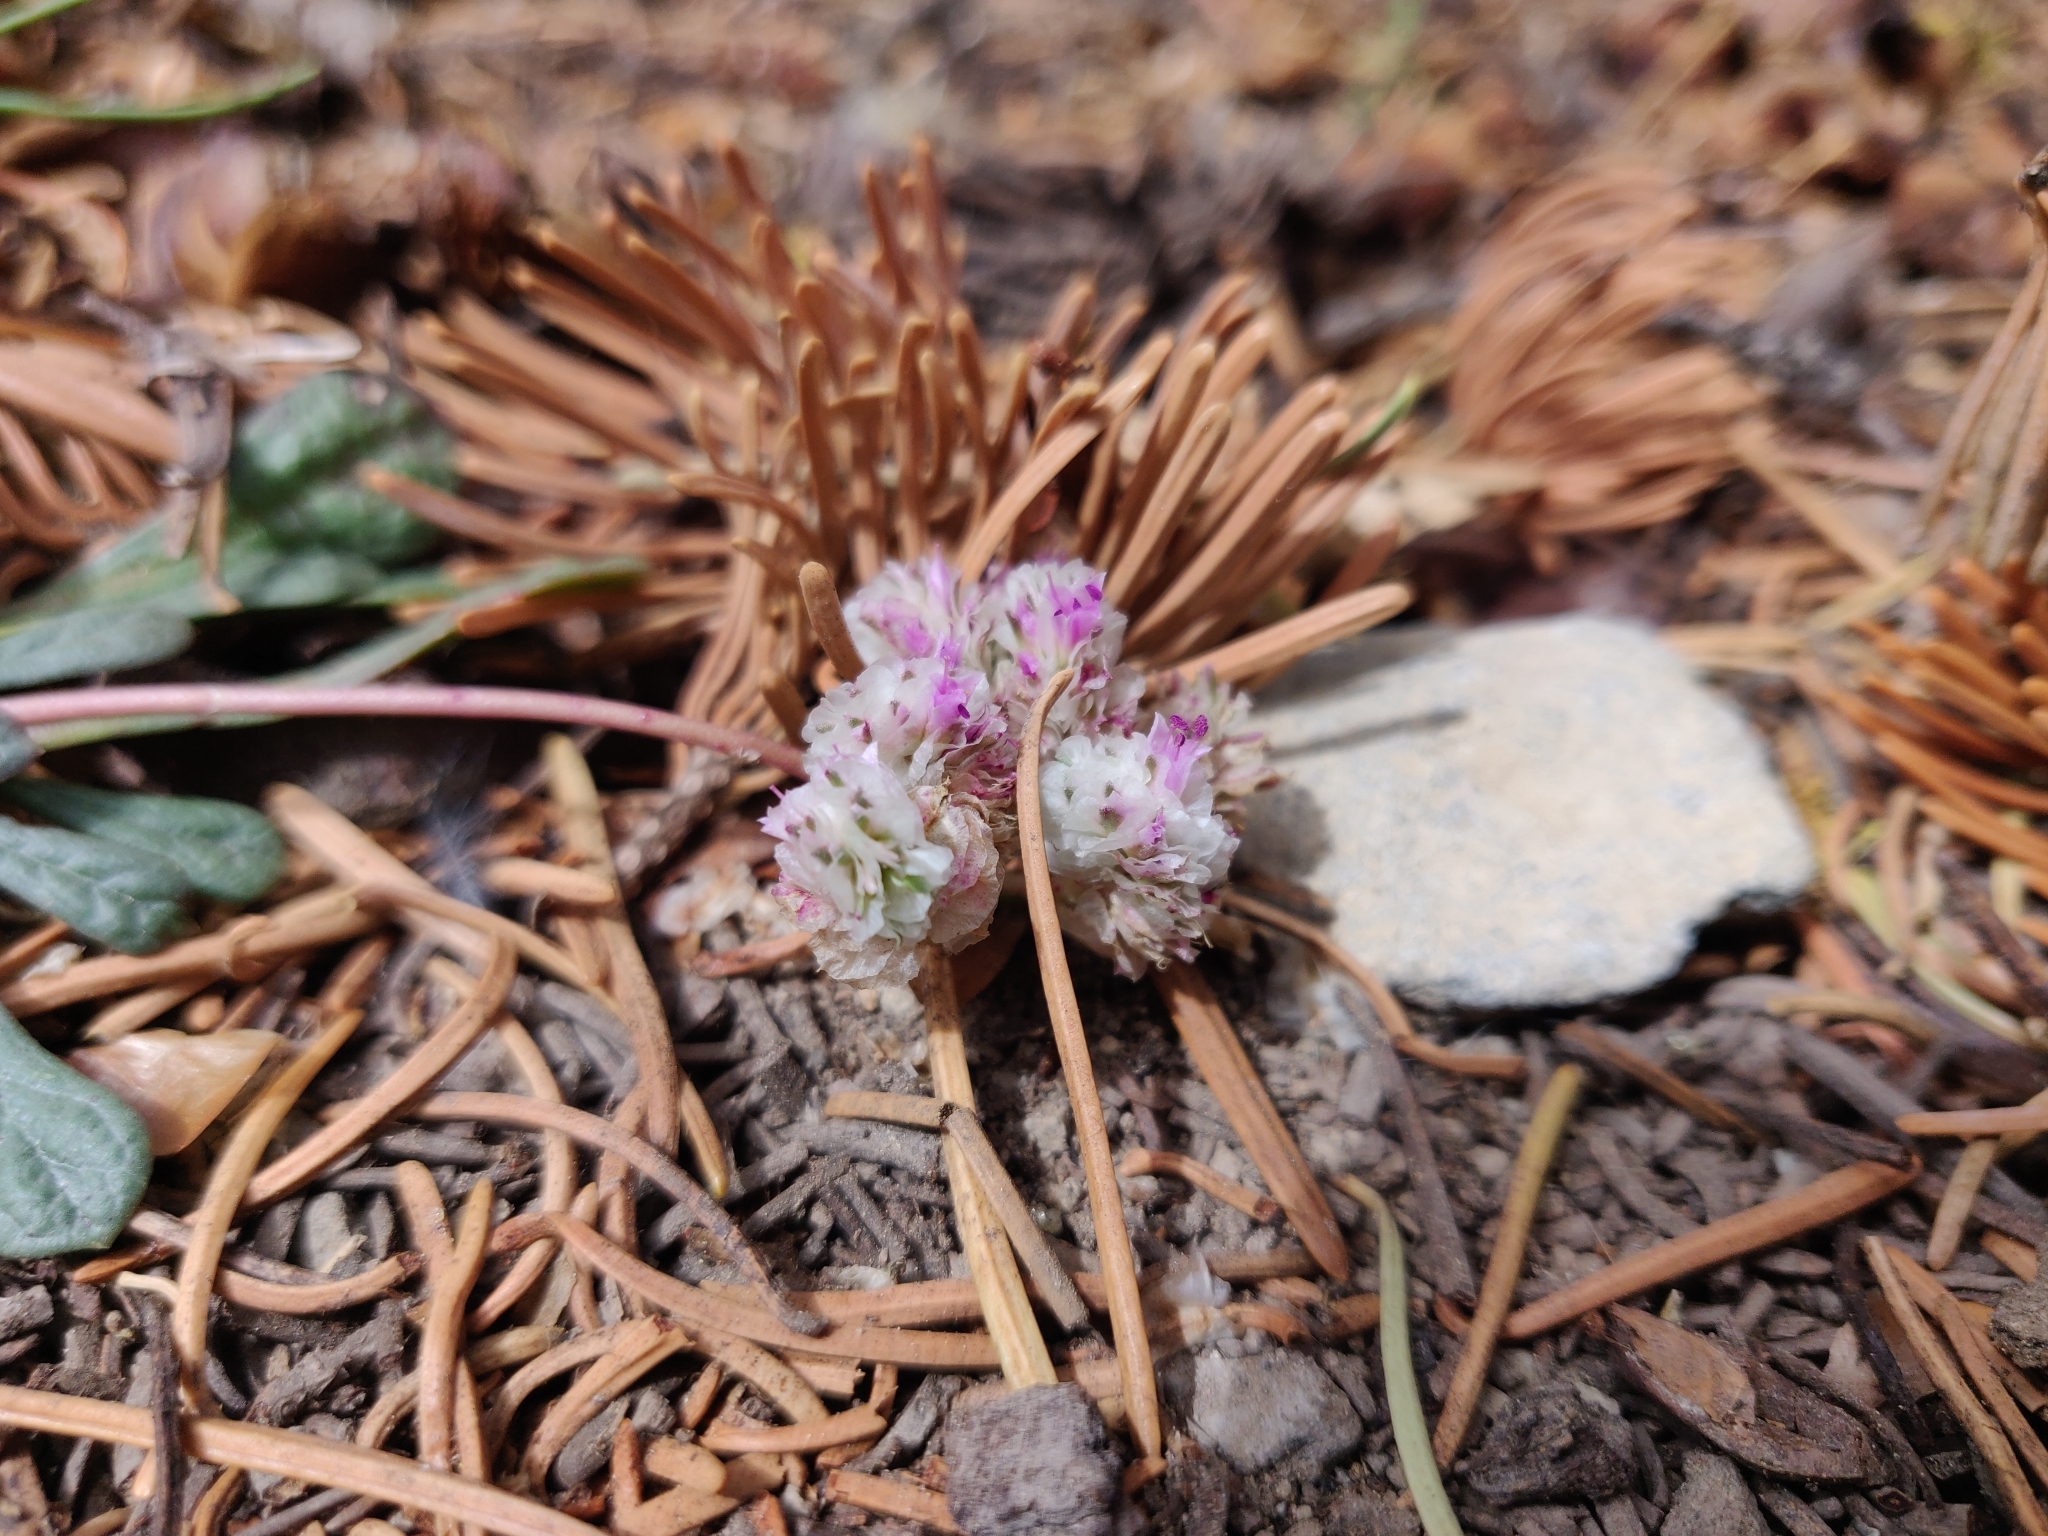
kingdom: Plantae
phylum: Tracheophyta
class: Magnoliopsida
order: Caryophyllales
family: Montiaceae
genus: Calyptridium
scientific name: Calyptridium monospermum
